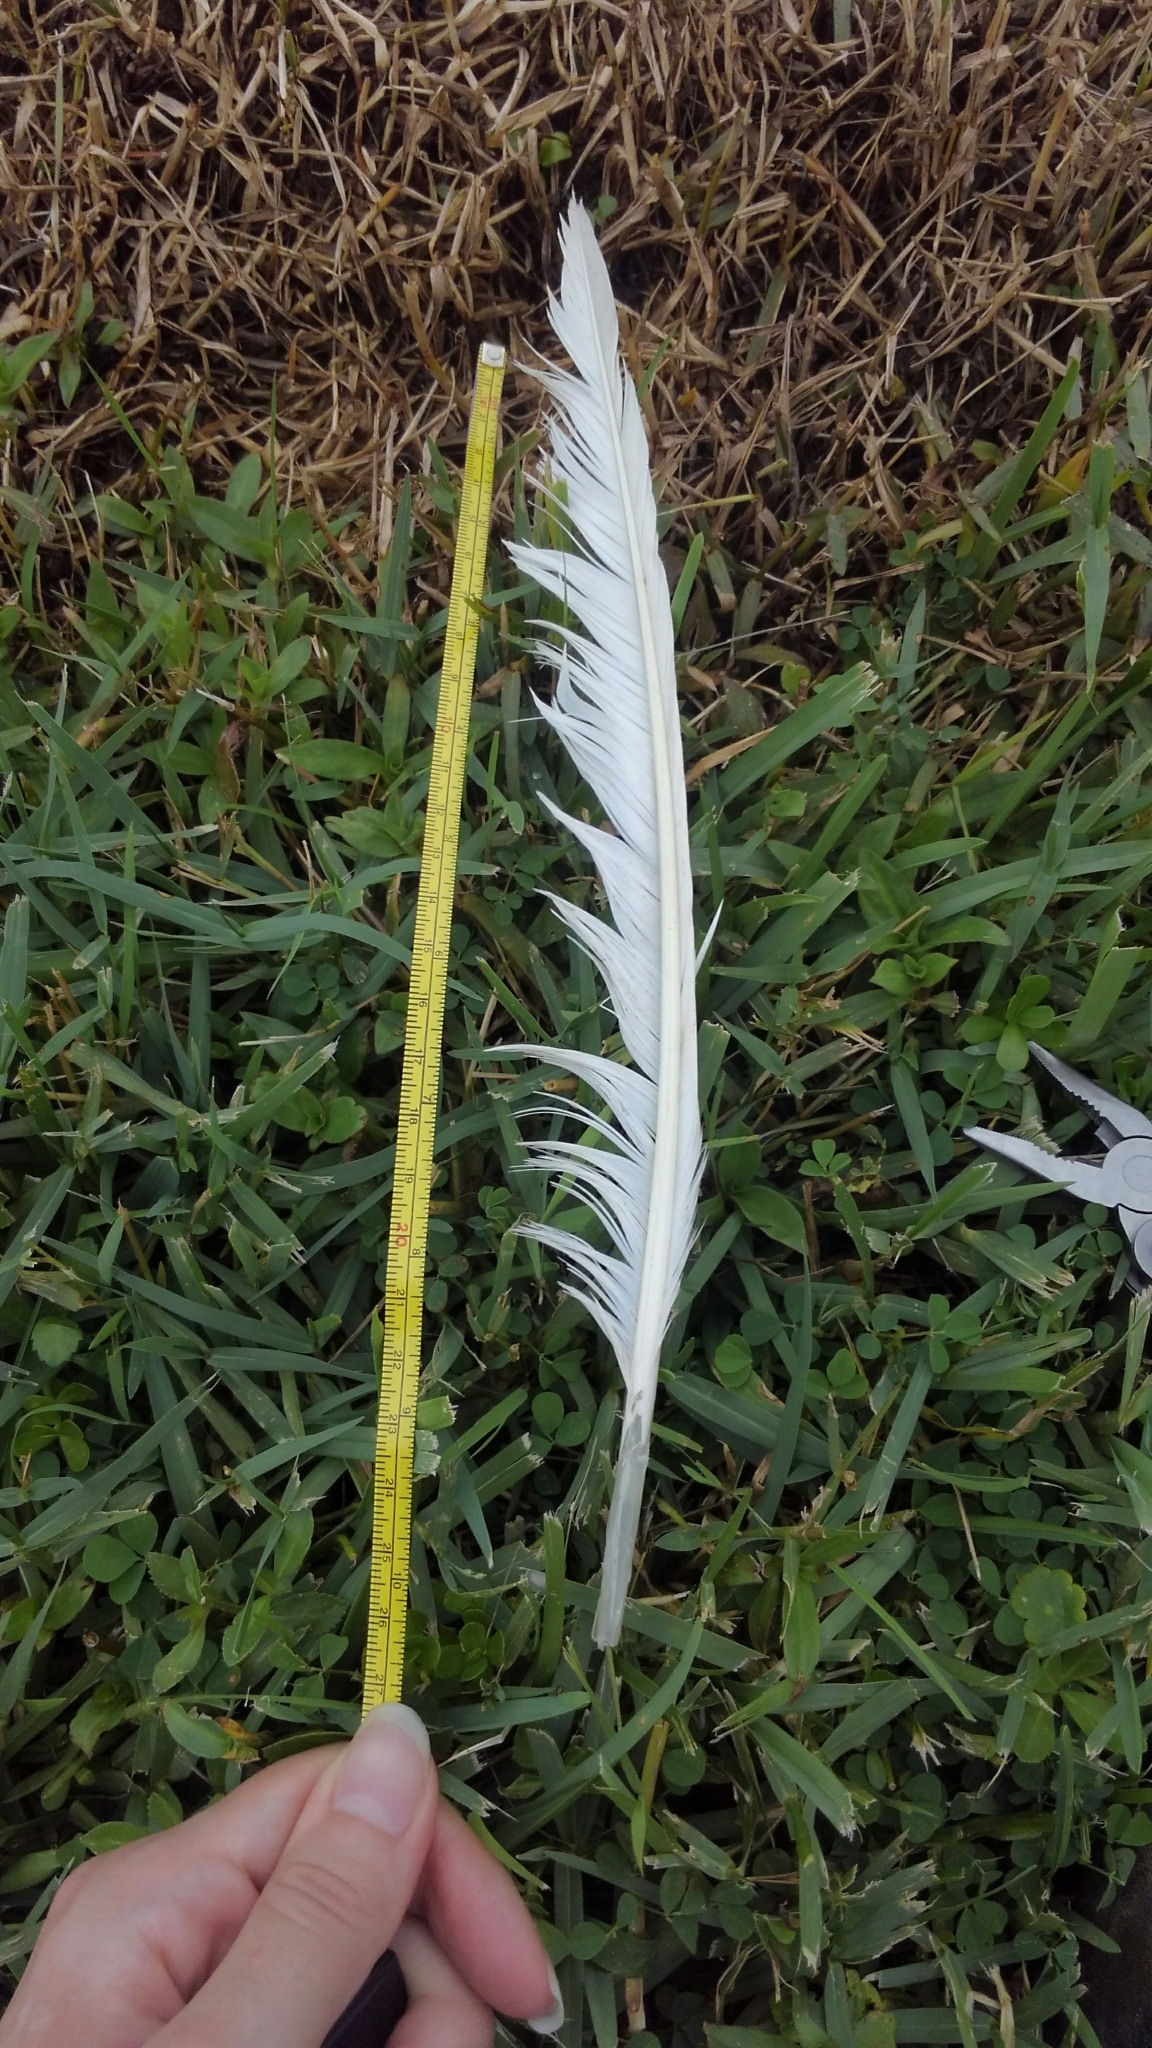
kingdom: Animalia
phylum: Chordata
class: Aves
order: Columbiformes
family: Columbidae
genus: Columba
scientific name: Columba livia
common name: Rock pigeon
